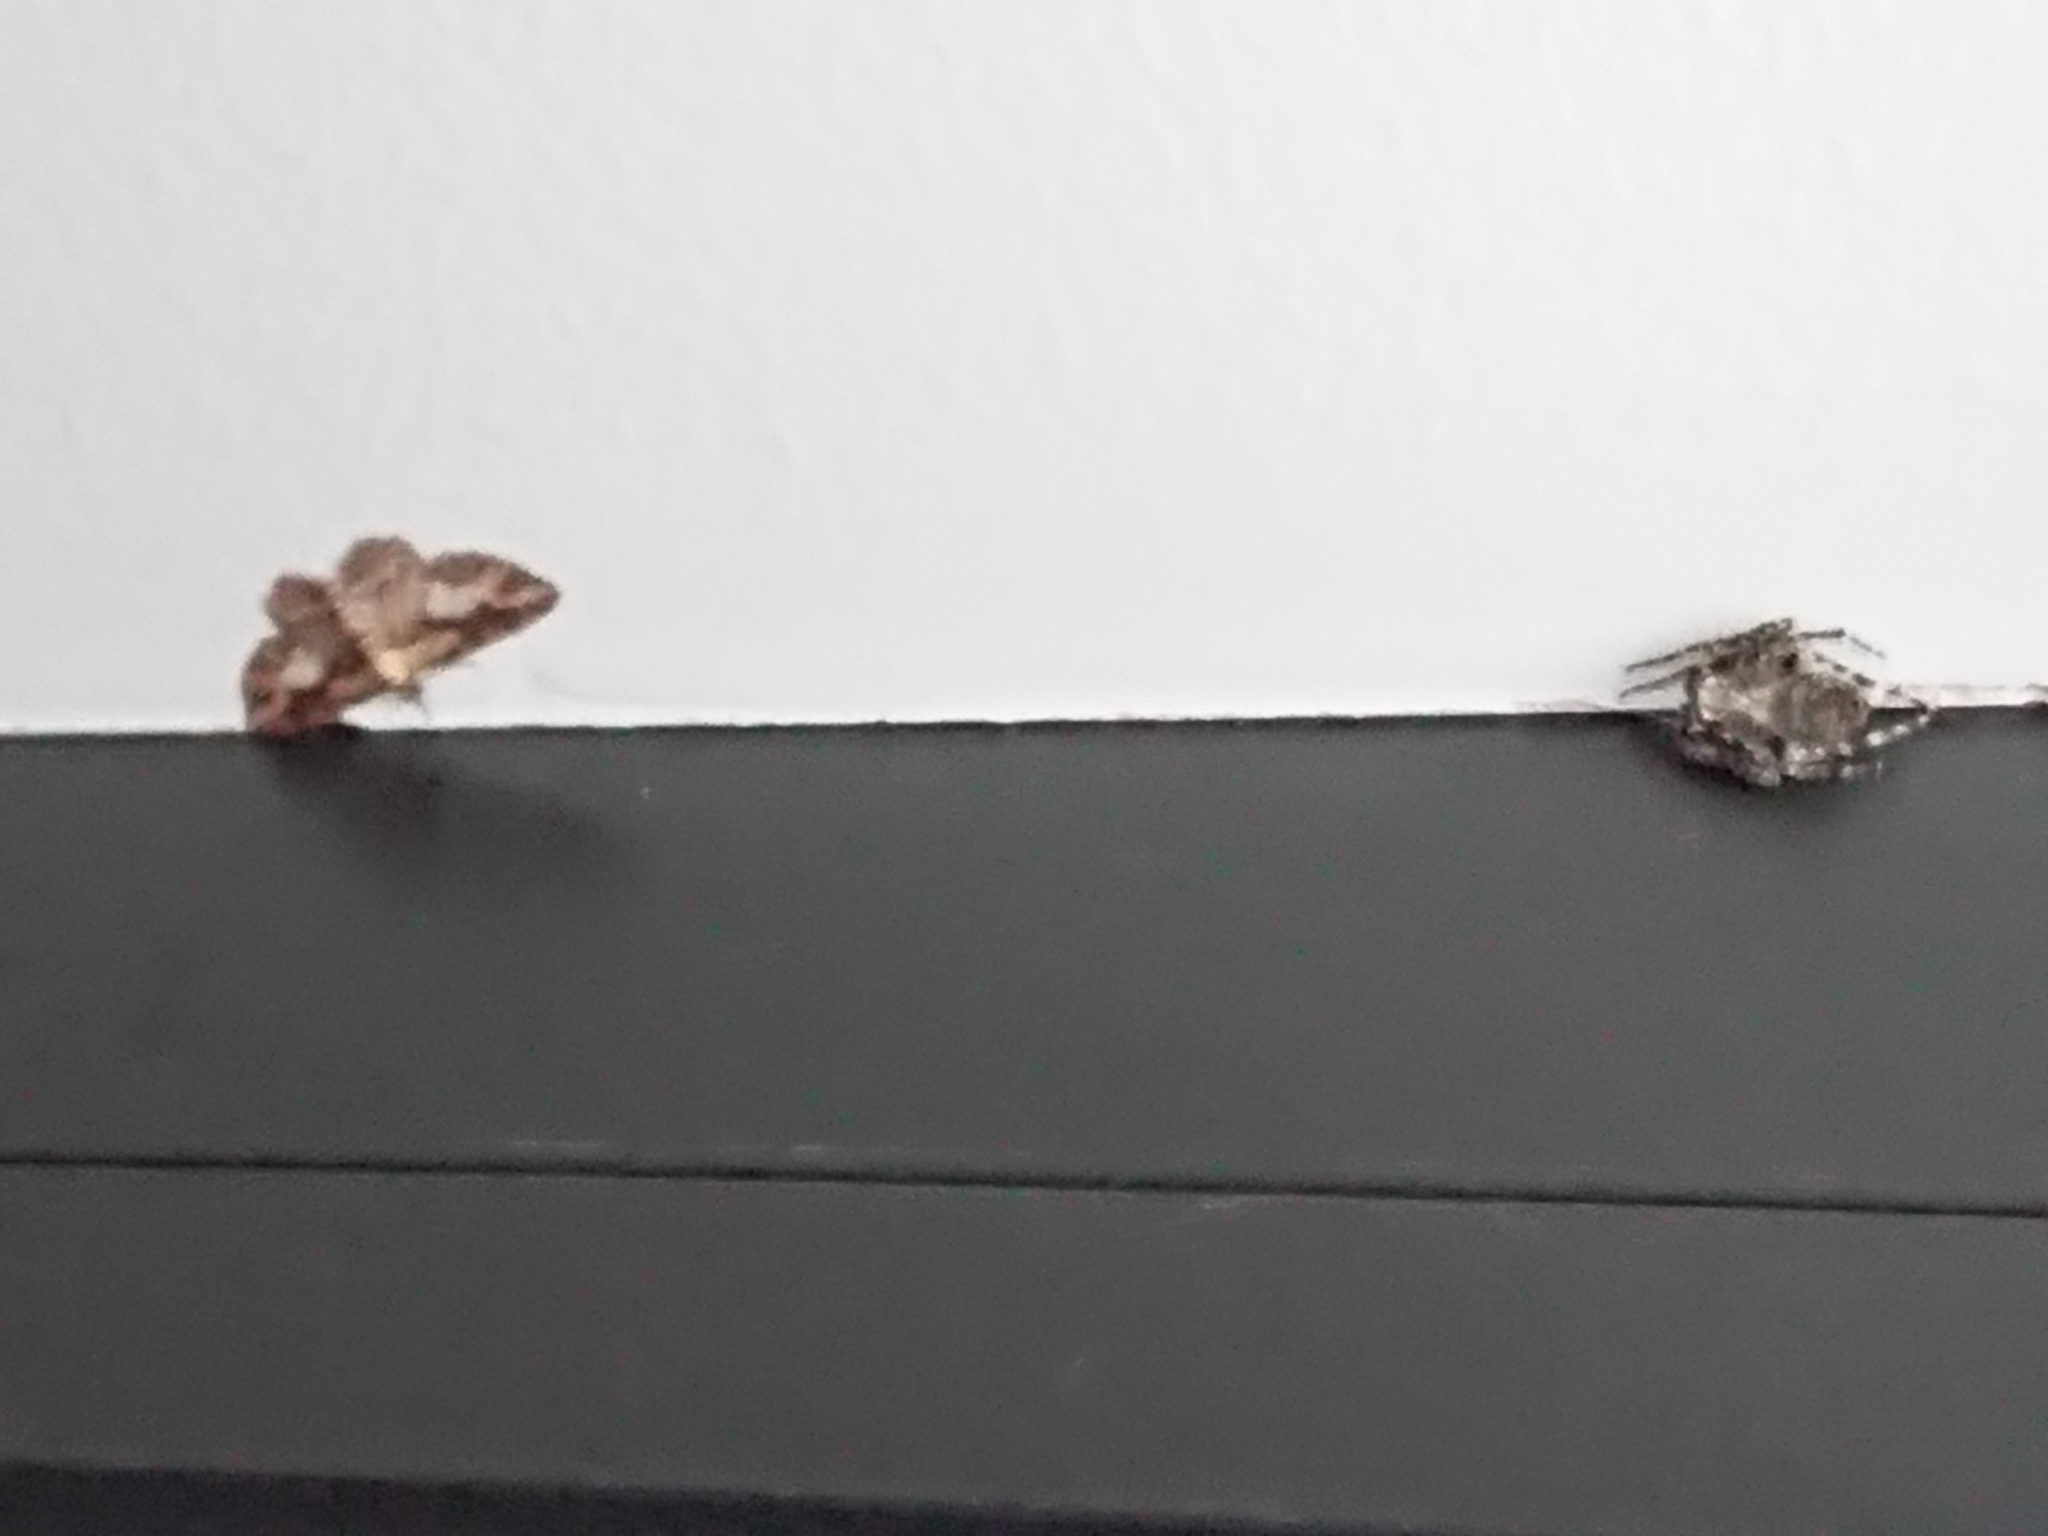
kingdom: Animalia
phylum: Arthropoda
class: Arachnida
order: Araneae
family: Araneidae
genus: Eriophora
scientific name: Eriophora pustulosa
